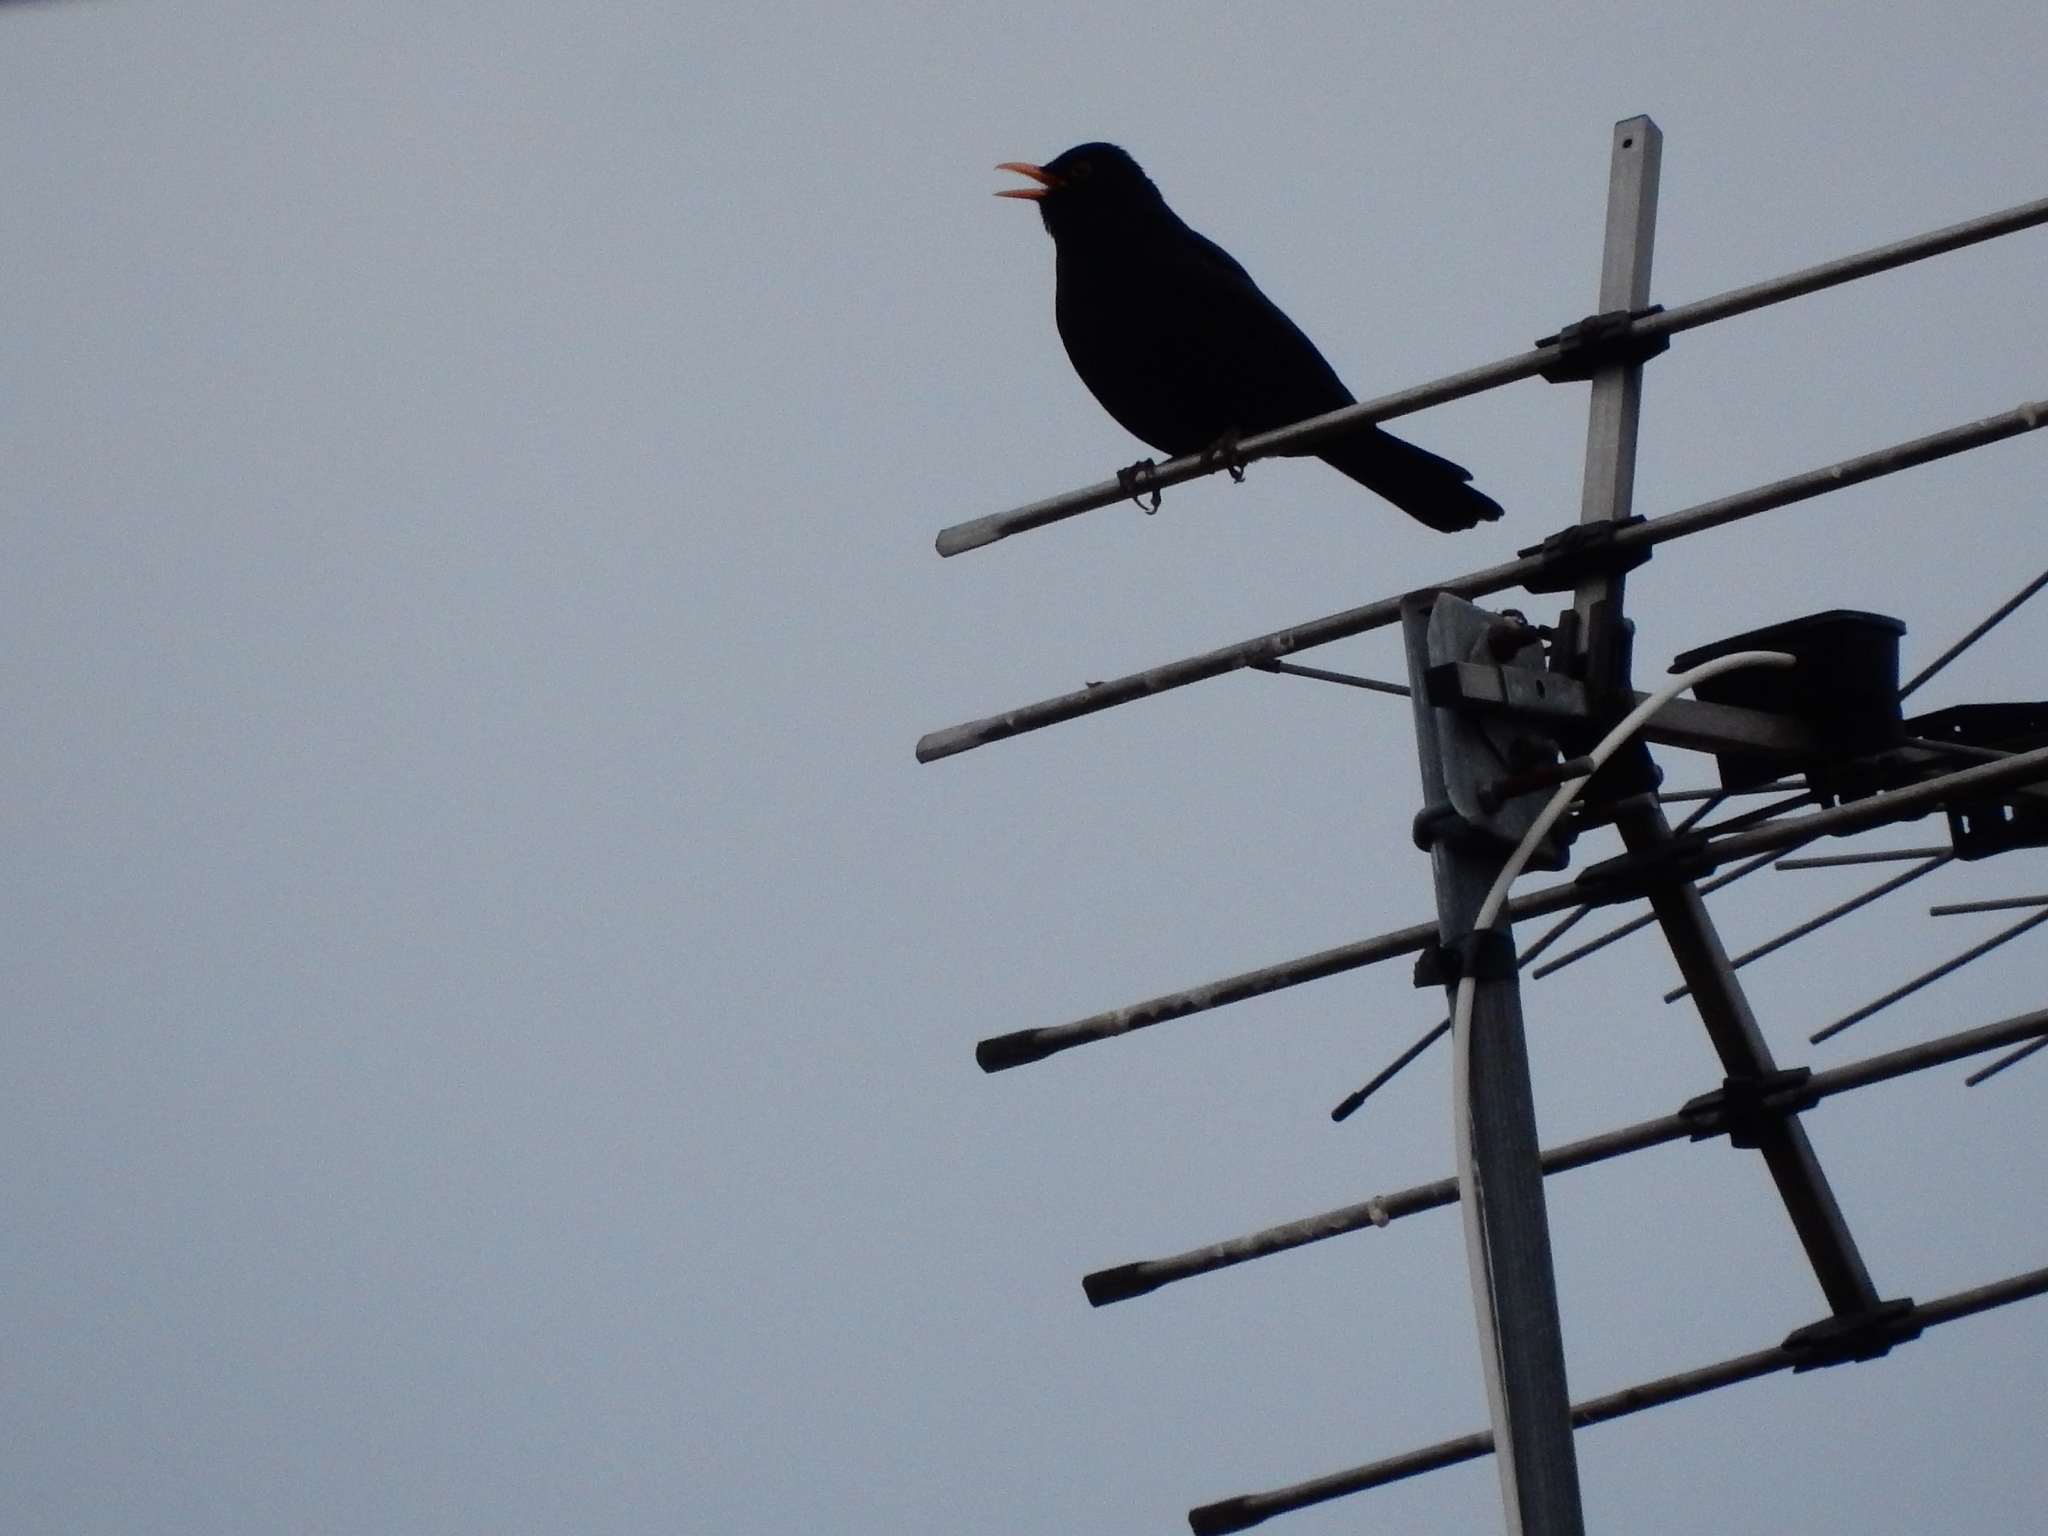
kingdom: Animalia
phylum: Chordata
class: Aves
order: Passeriformes
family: Turdidae
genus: Turdus
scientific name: Turdus merula
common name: Common blackbird
